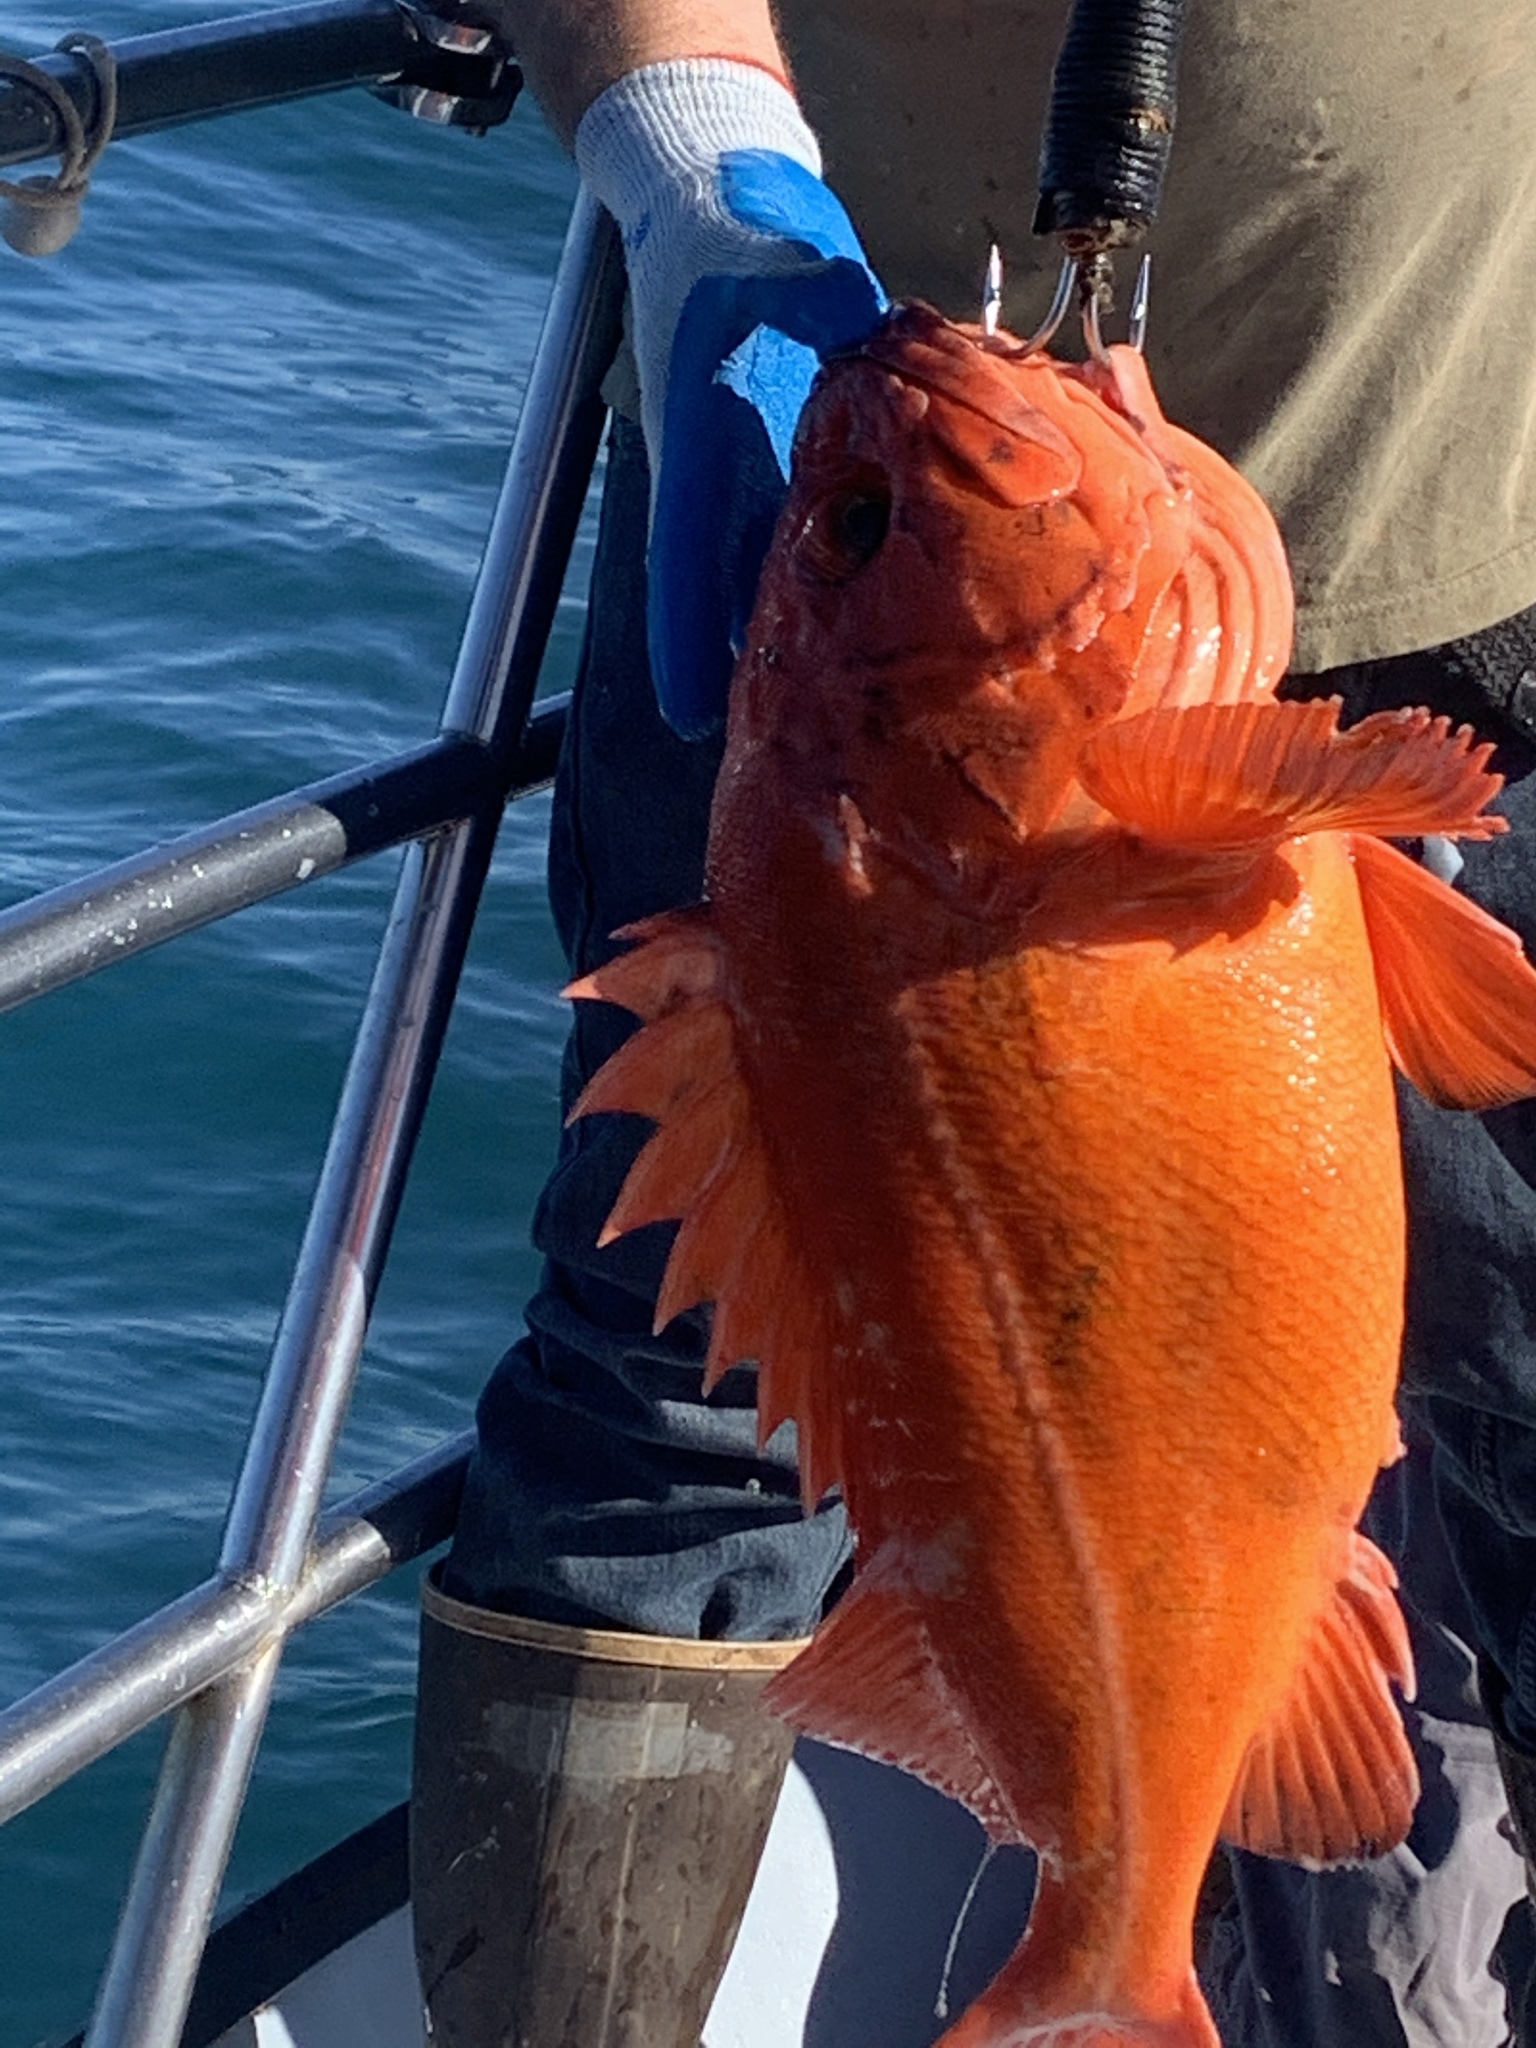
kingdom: Animalia
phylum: Chordata
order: Scorpaeniformes
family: Sebastidae
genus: Sebastes
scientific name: Sebastes ruberrimus
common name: Yelloweye rockfish
